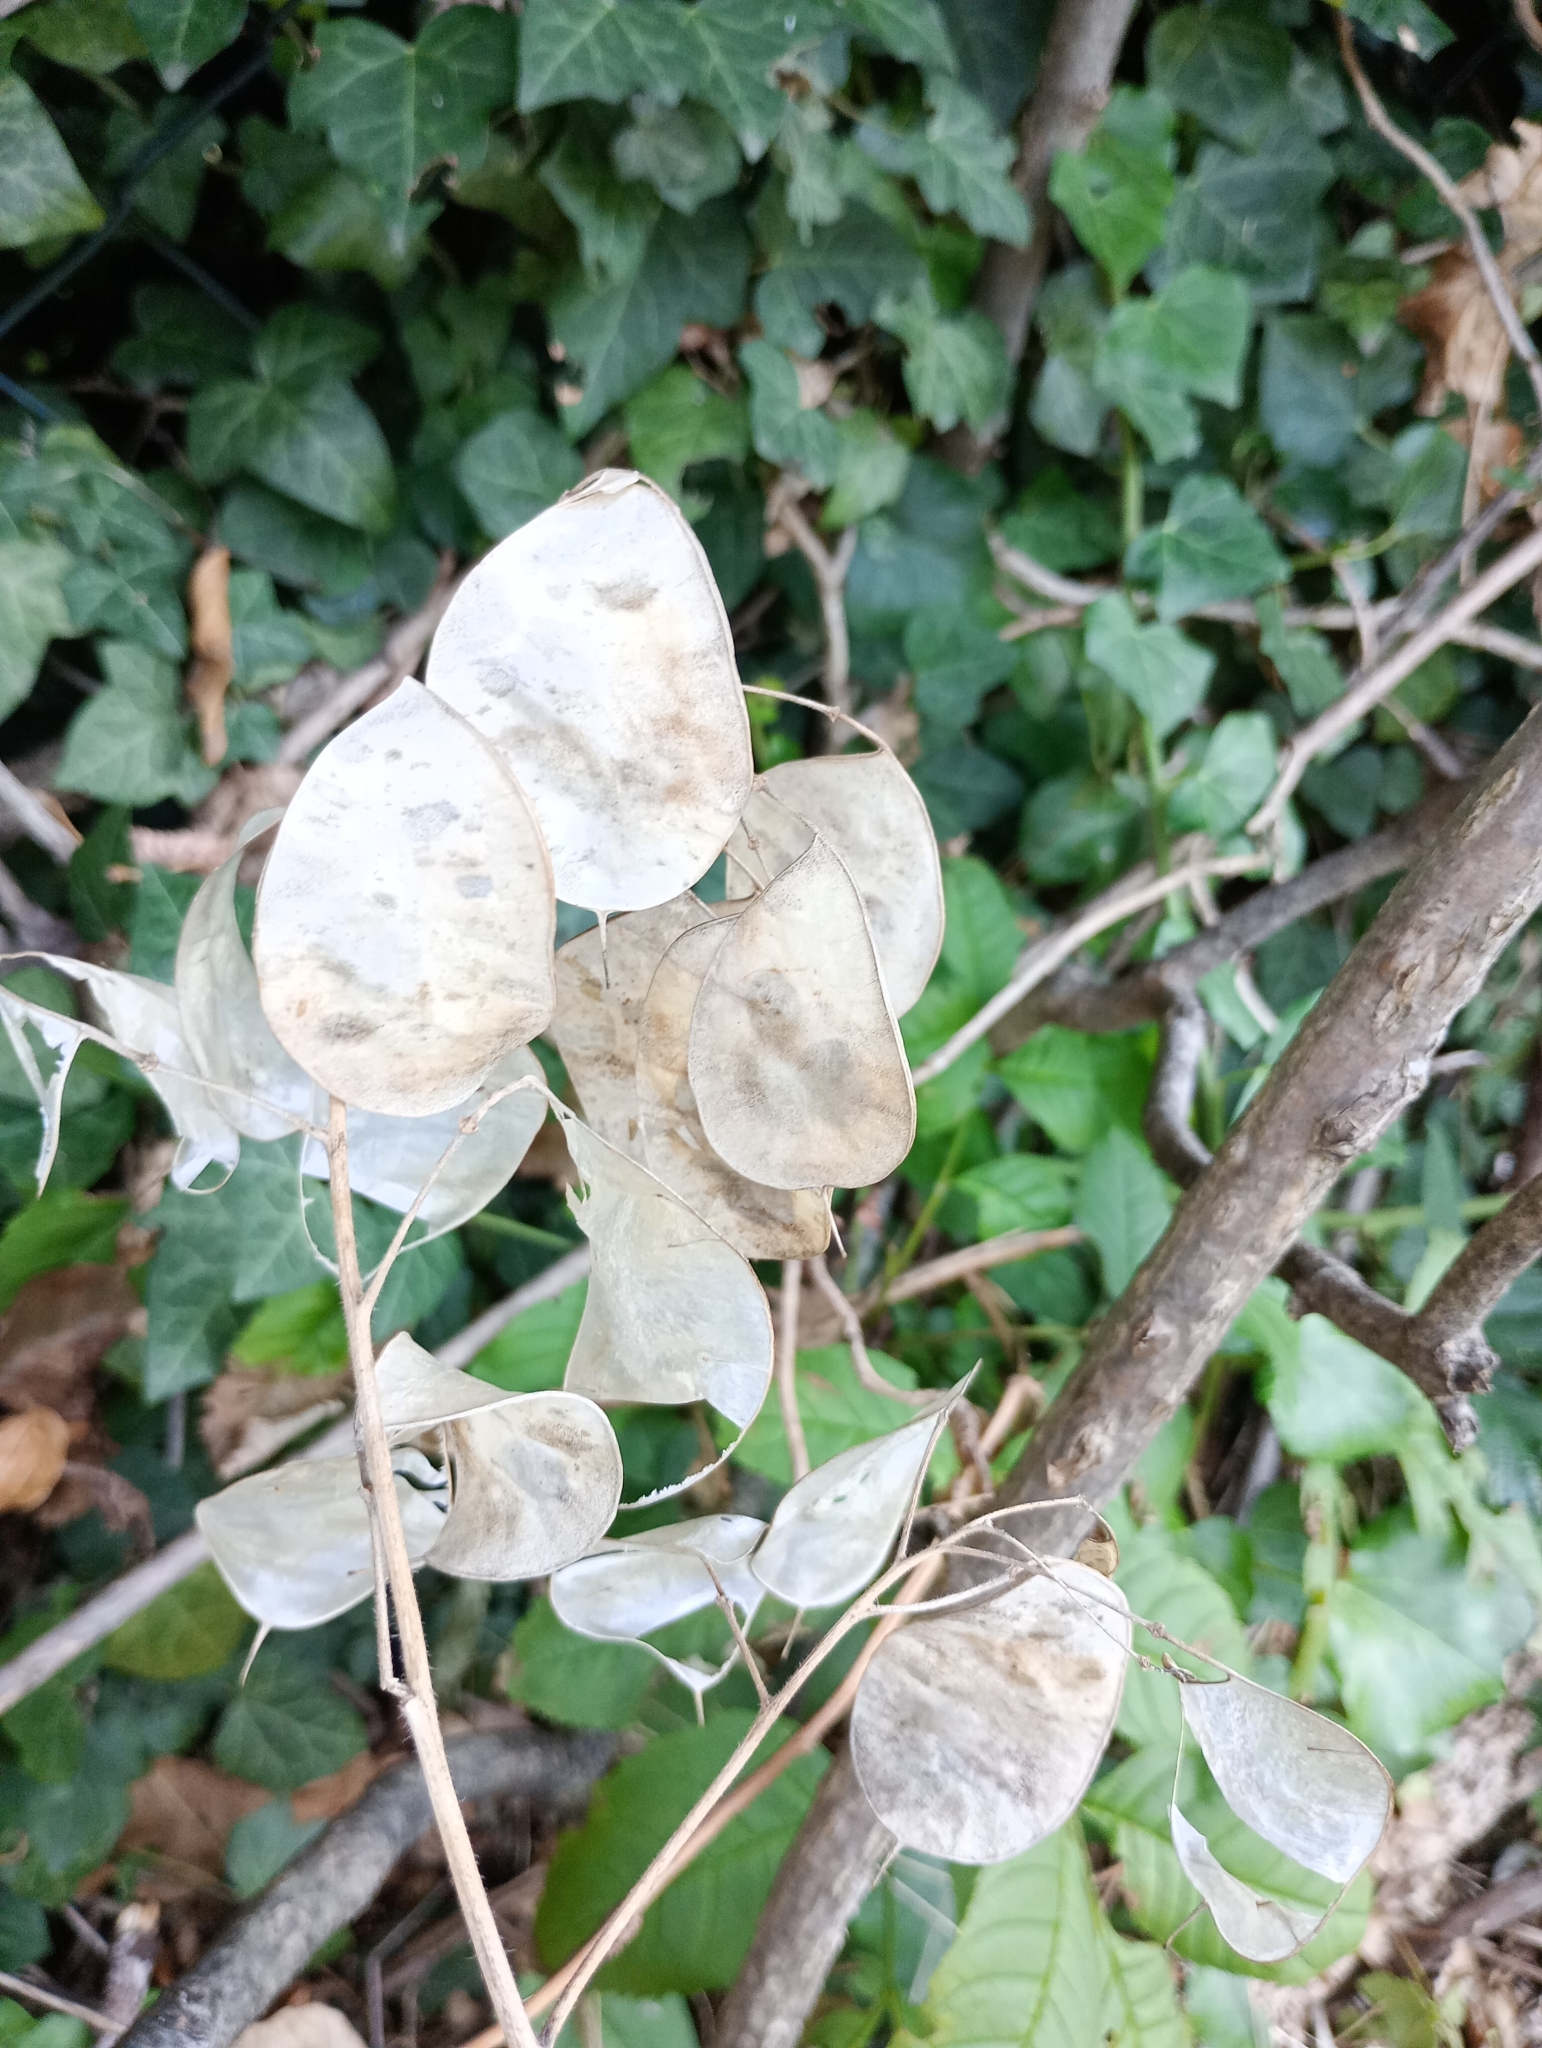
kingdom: Plantae
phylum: Tracheophyta
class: Magnoliopsida
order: Brassicales
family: Brassicaceae
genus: Lunaria
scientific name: Lunaria annua
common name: Honesty
